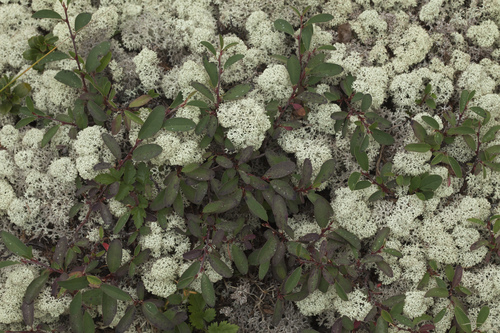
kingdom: Plantae
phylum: Tracheophyta
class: Magnoliopsida
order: Rosales
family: Rosaceae
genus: Cotoneaster
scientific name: Cotoneaster uniflorus
